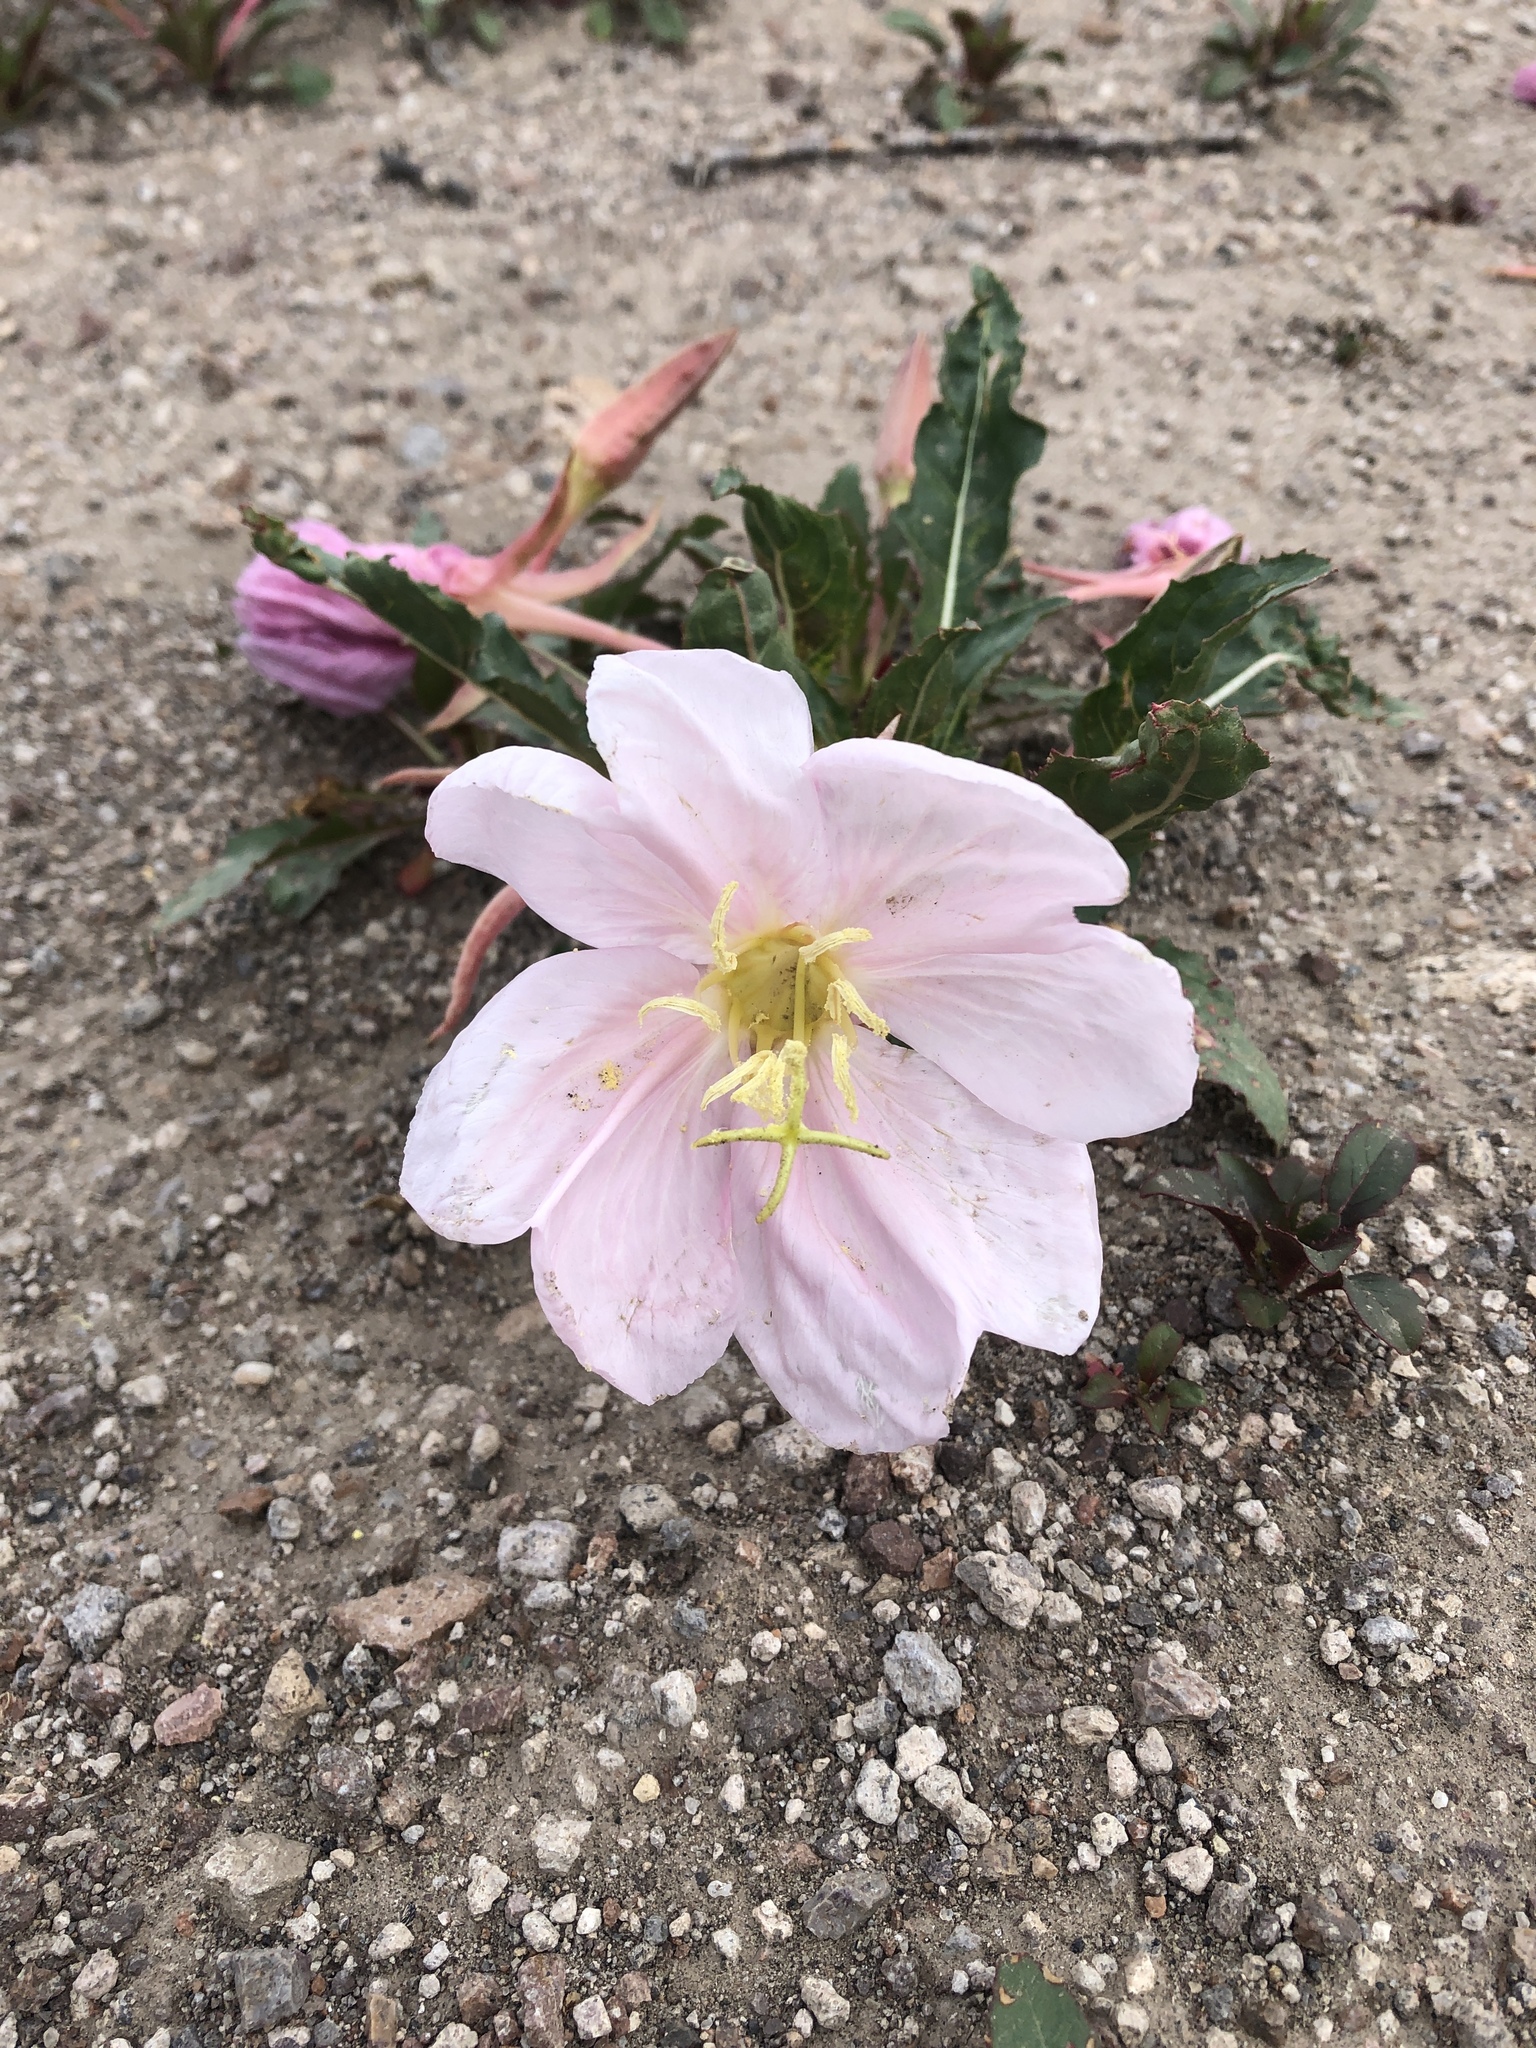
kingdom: Plantae
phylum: Tracheophyta
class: Magnoliopsida
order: Myrtales
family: Onagraceae
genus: Oenothera
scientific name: Oenothera cespitosa
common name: Tufted evening-primrose
